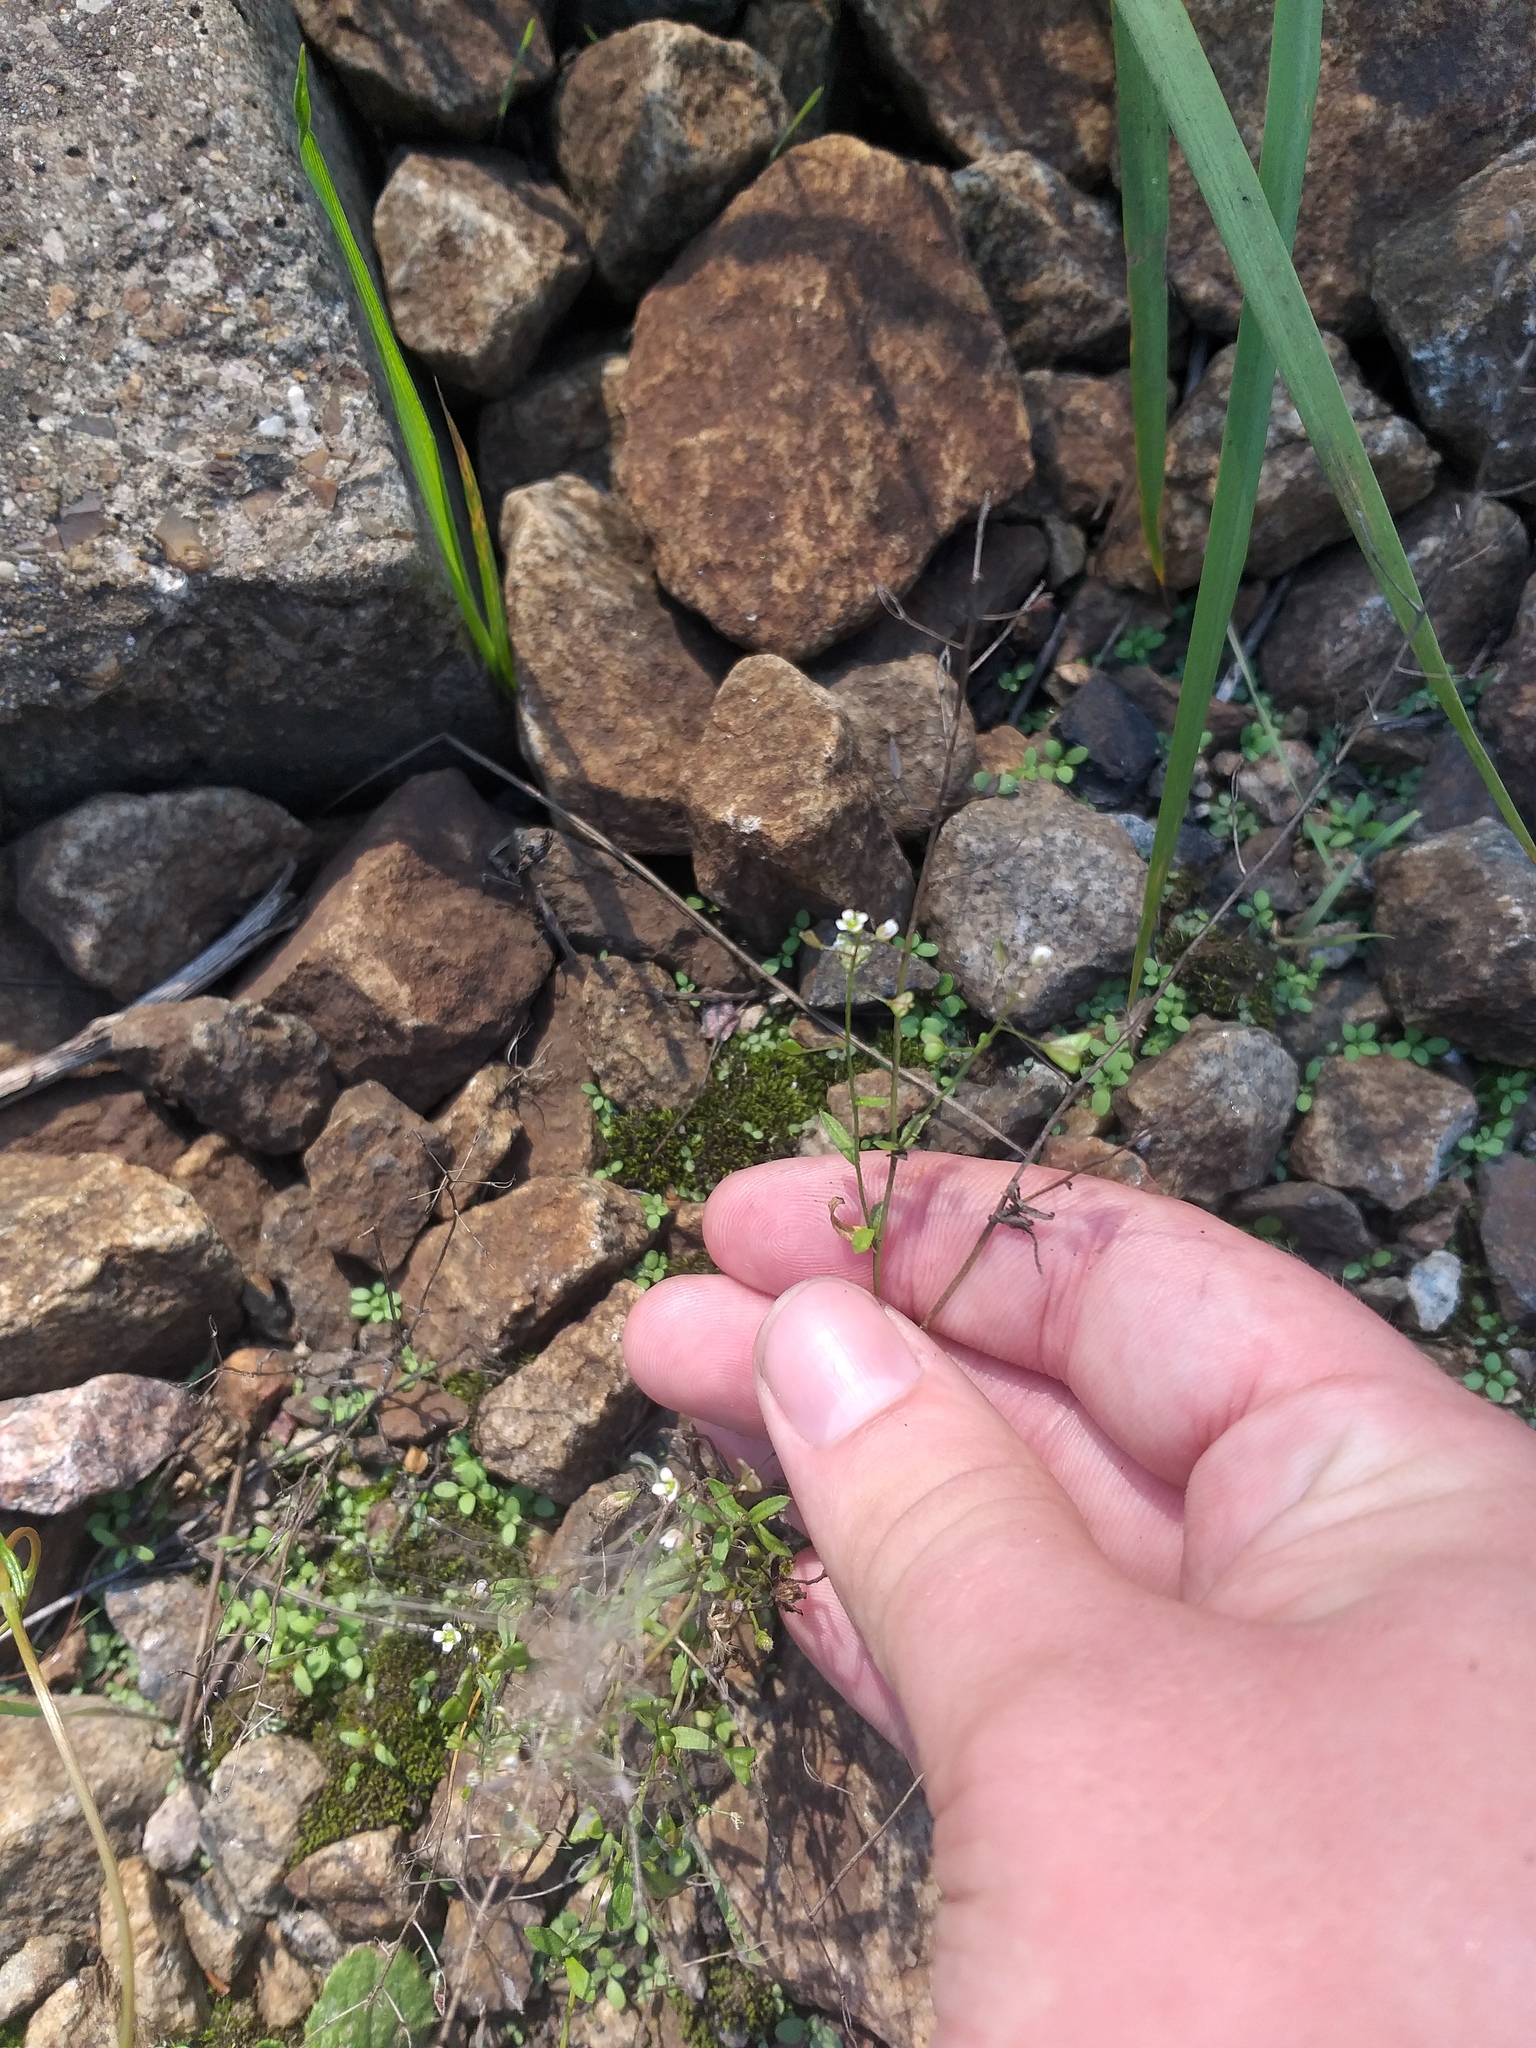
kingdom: Plantae
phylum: Tracheophyta
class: Magnoliopsida
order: Brassicales
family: Brassicaceae
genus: Capsella
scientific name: Capsella bursa-pastoris
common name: Shepherd's purse
